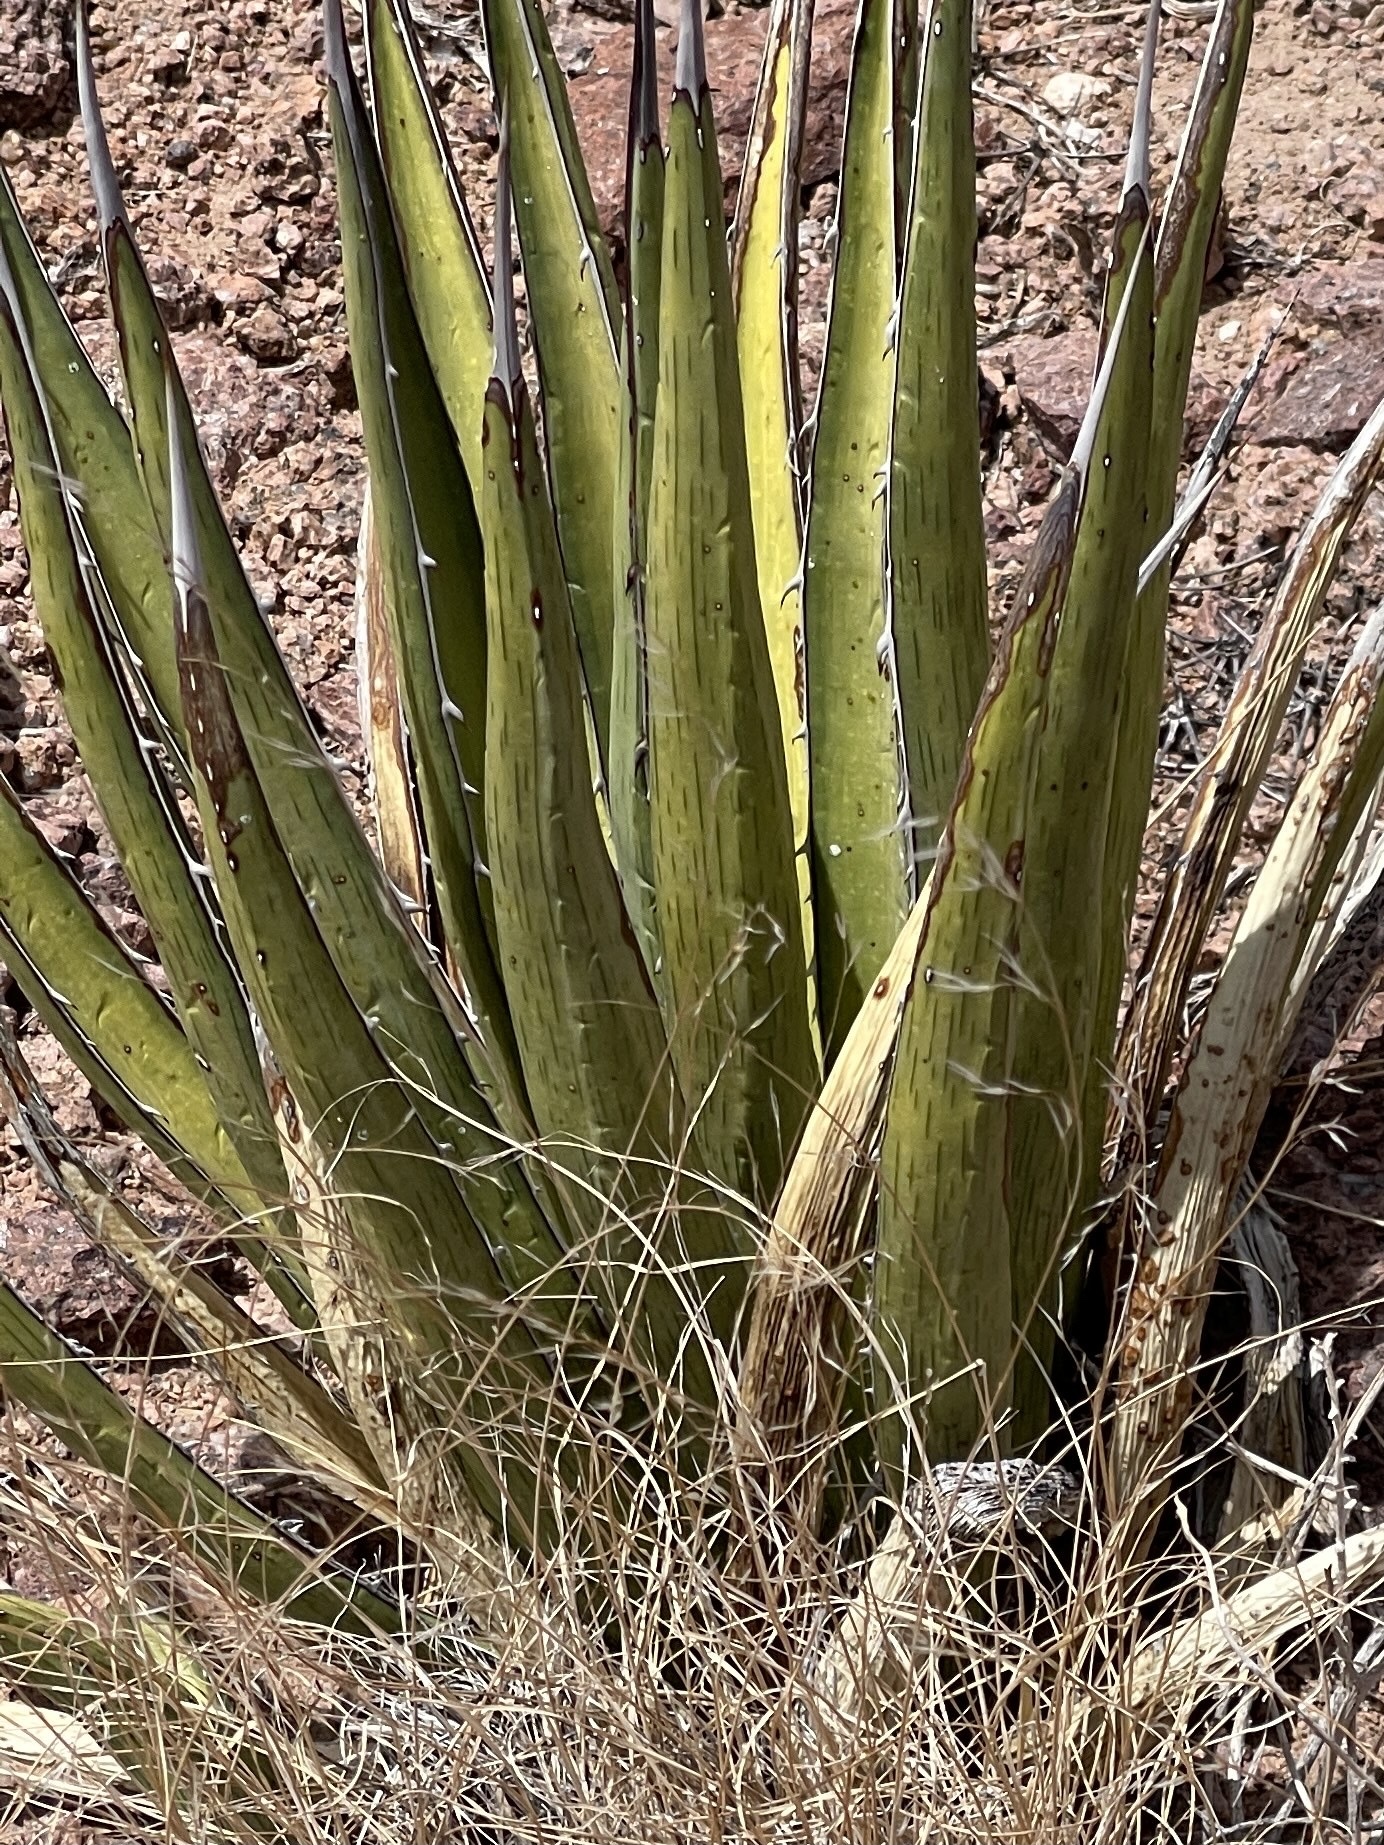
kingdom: Plantae
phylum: Tracheophyta
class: Liliopsida
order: Asparagales
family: Asparagaceae
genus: Agave
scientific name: Agave lechuguilla
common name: Lecheguilla agave
